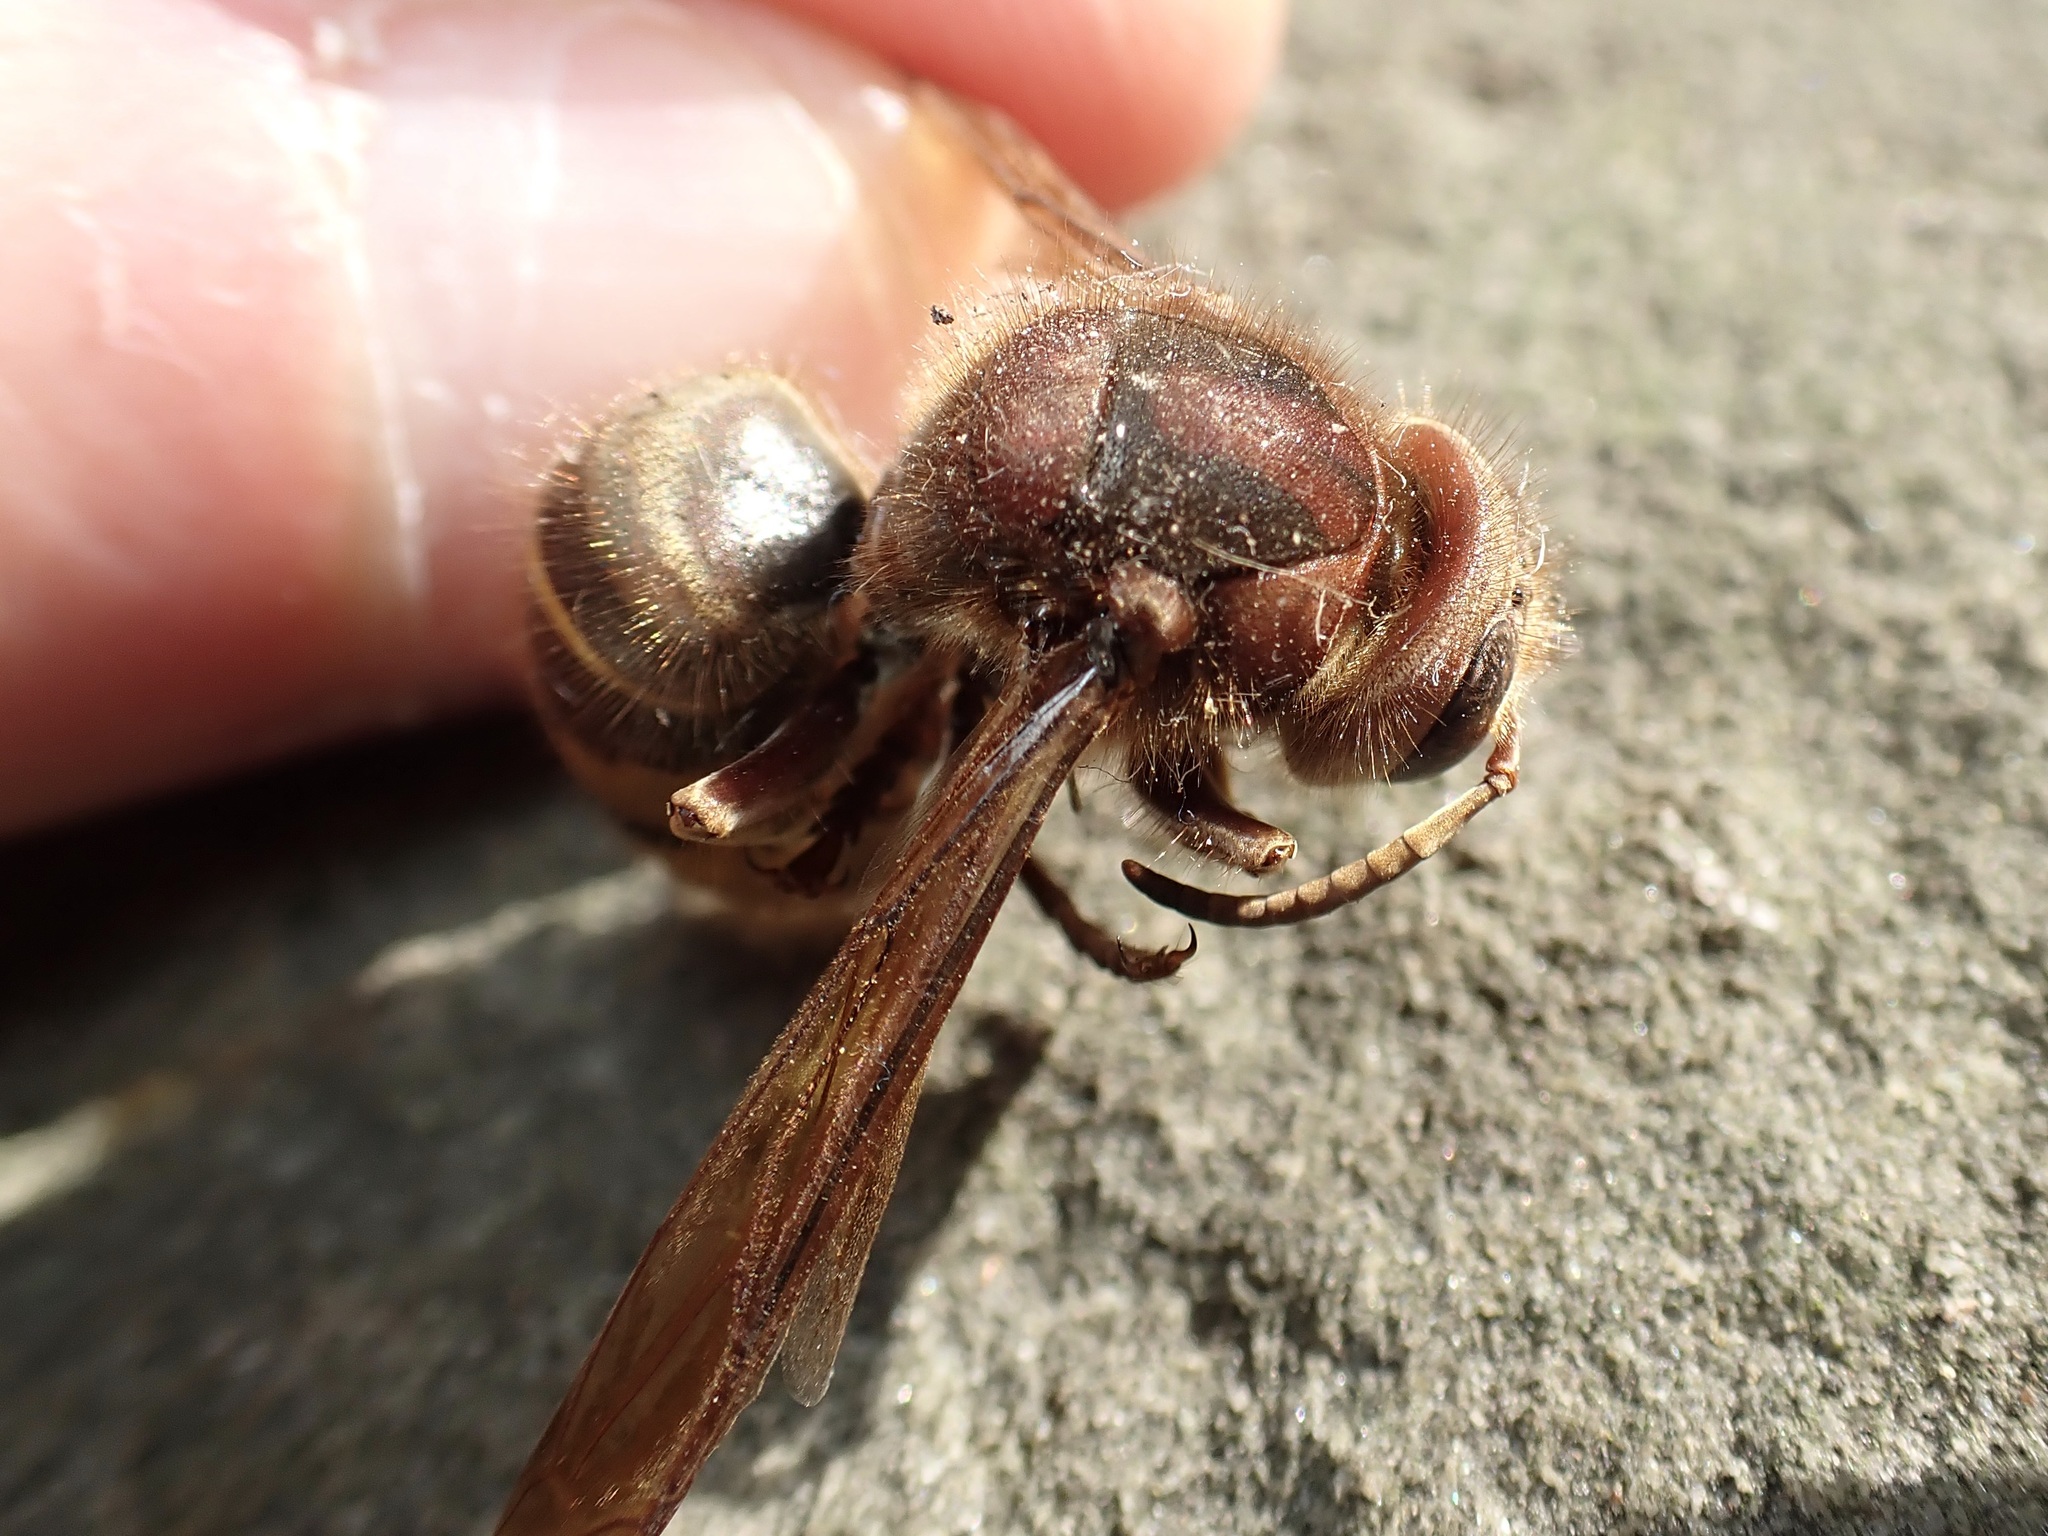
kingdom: Animalia
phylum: Arthropoda
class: Insecta
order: Hymenoptera
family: Vespidae
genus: Vespa
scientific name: Vespa crabro
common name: Hornet
